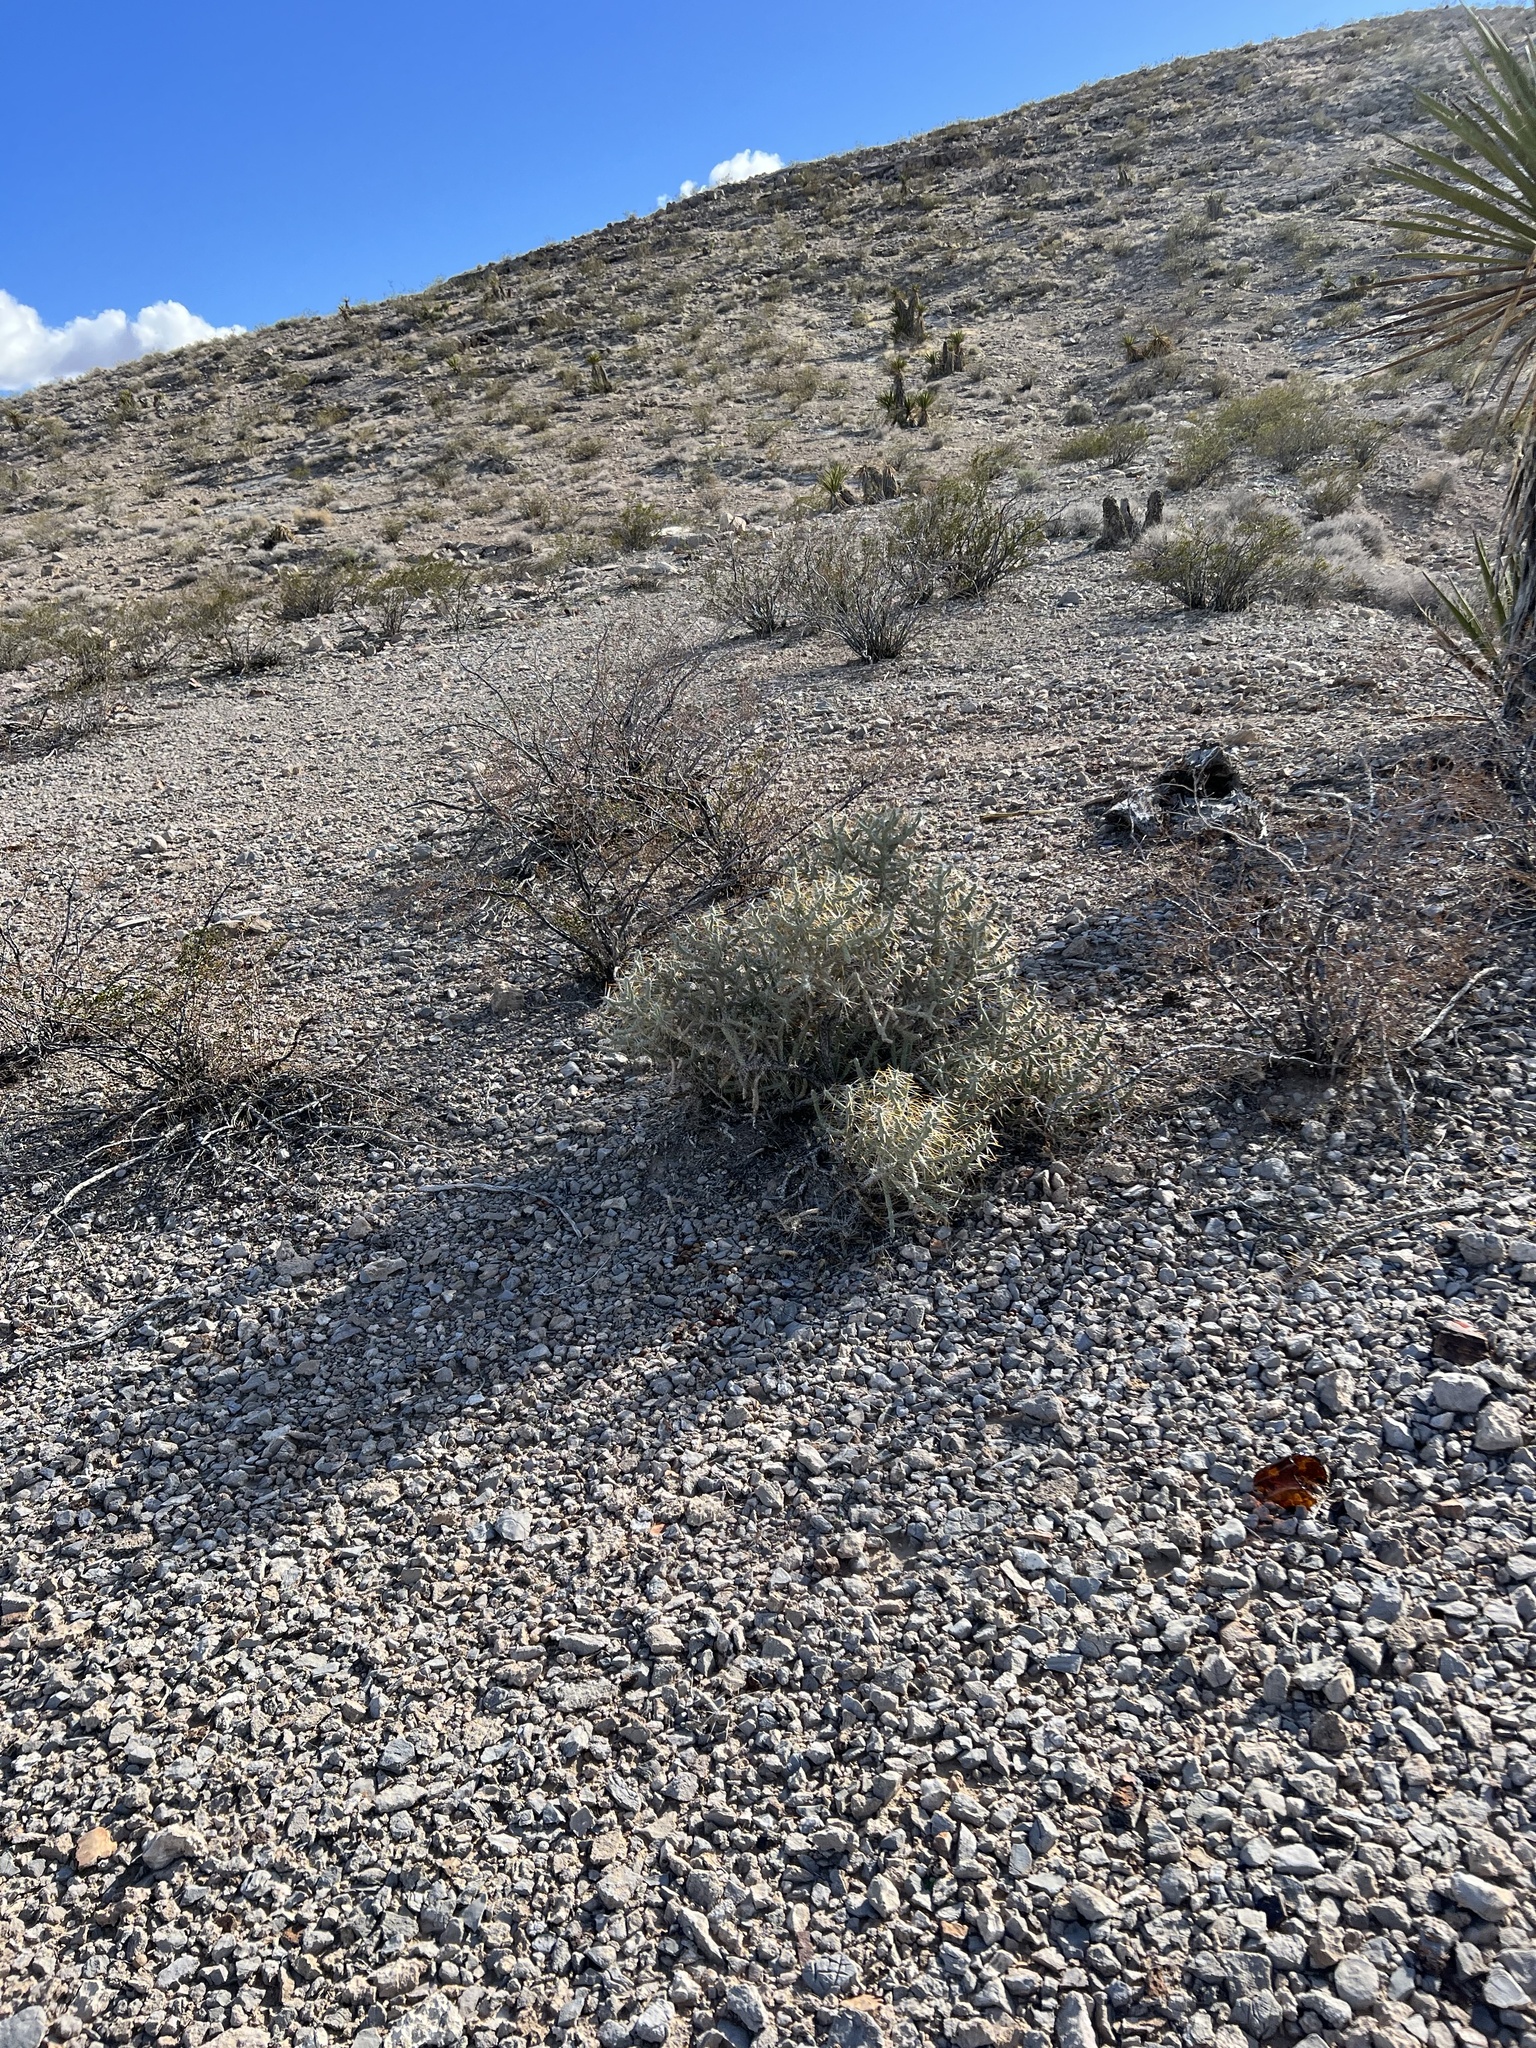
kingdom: Plantae
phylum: Tracheophyta
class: Magnoliopsida
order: Caryophyllales
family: Cactaceae
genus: Cylindropuntia
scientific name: Cylindropuntia ramosissima
